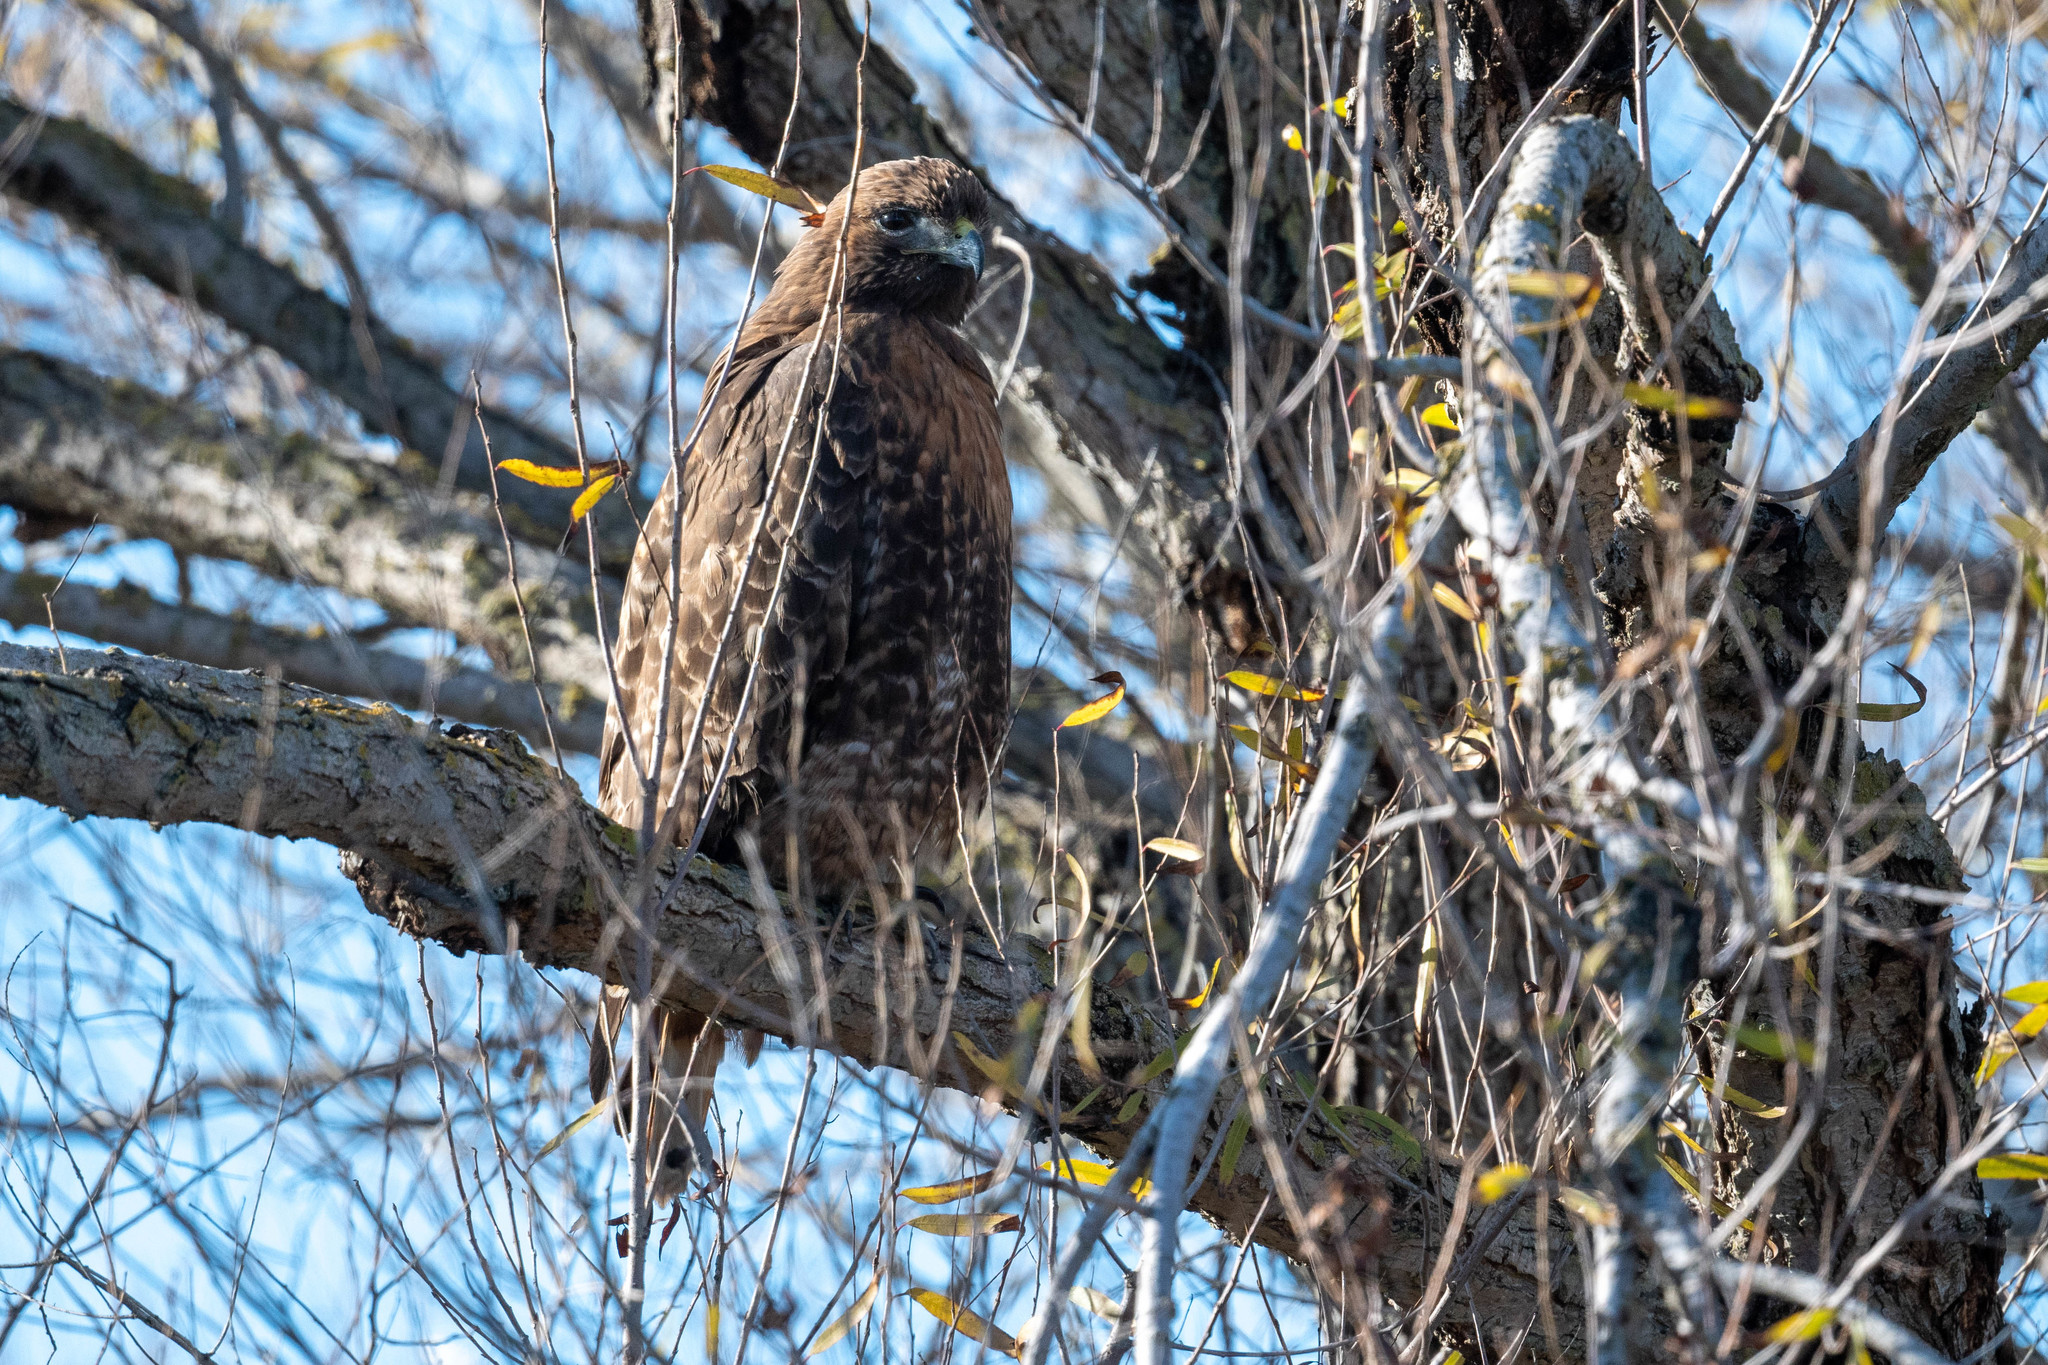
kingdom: Animalia
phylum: Chordata
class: Aves
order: Accipitriformes
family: Accipitridae
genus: Buteo
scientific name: Buteo jamaicensis
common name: Red-tailed hawk
